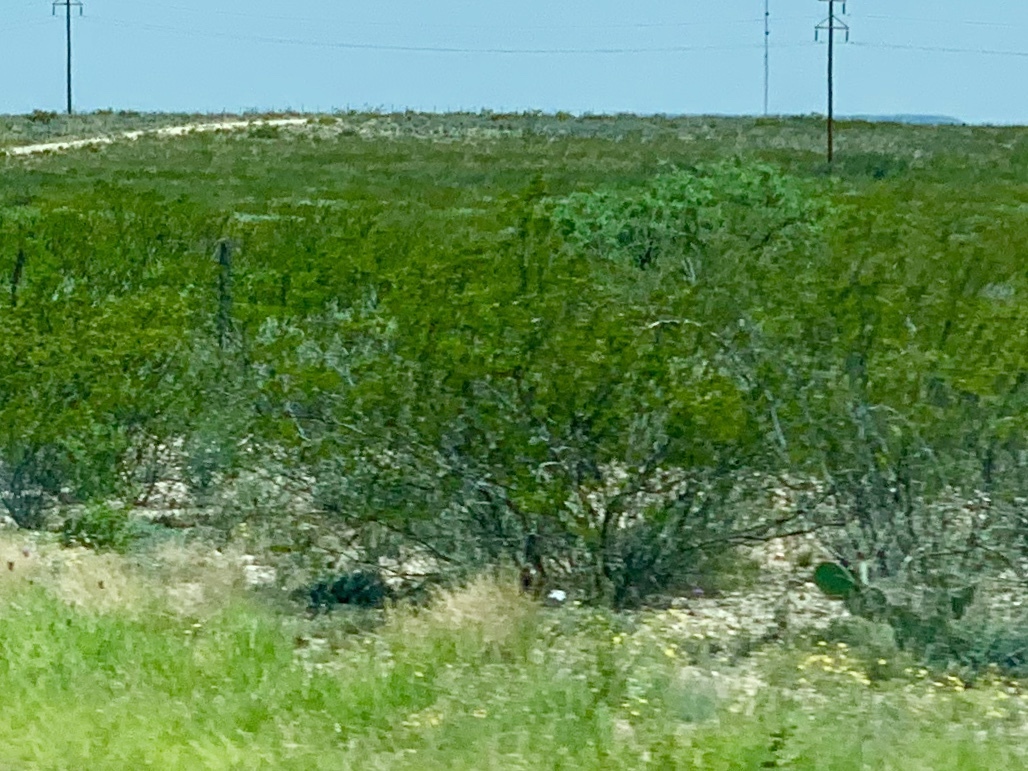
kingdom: Plantae
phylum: Tracheophyta
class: Magnoliopsida
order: Zygophyllales
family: Zygophyllaceae
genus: Larrea
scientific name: Larrea tridentata
